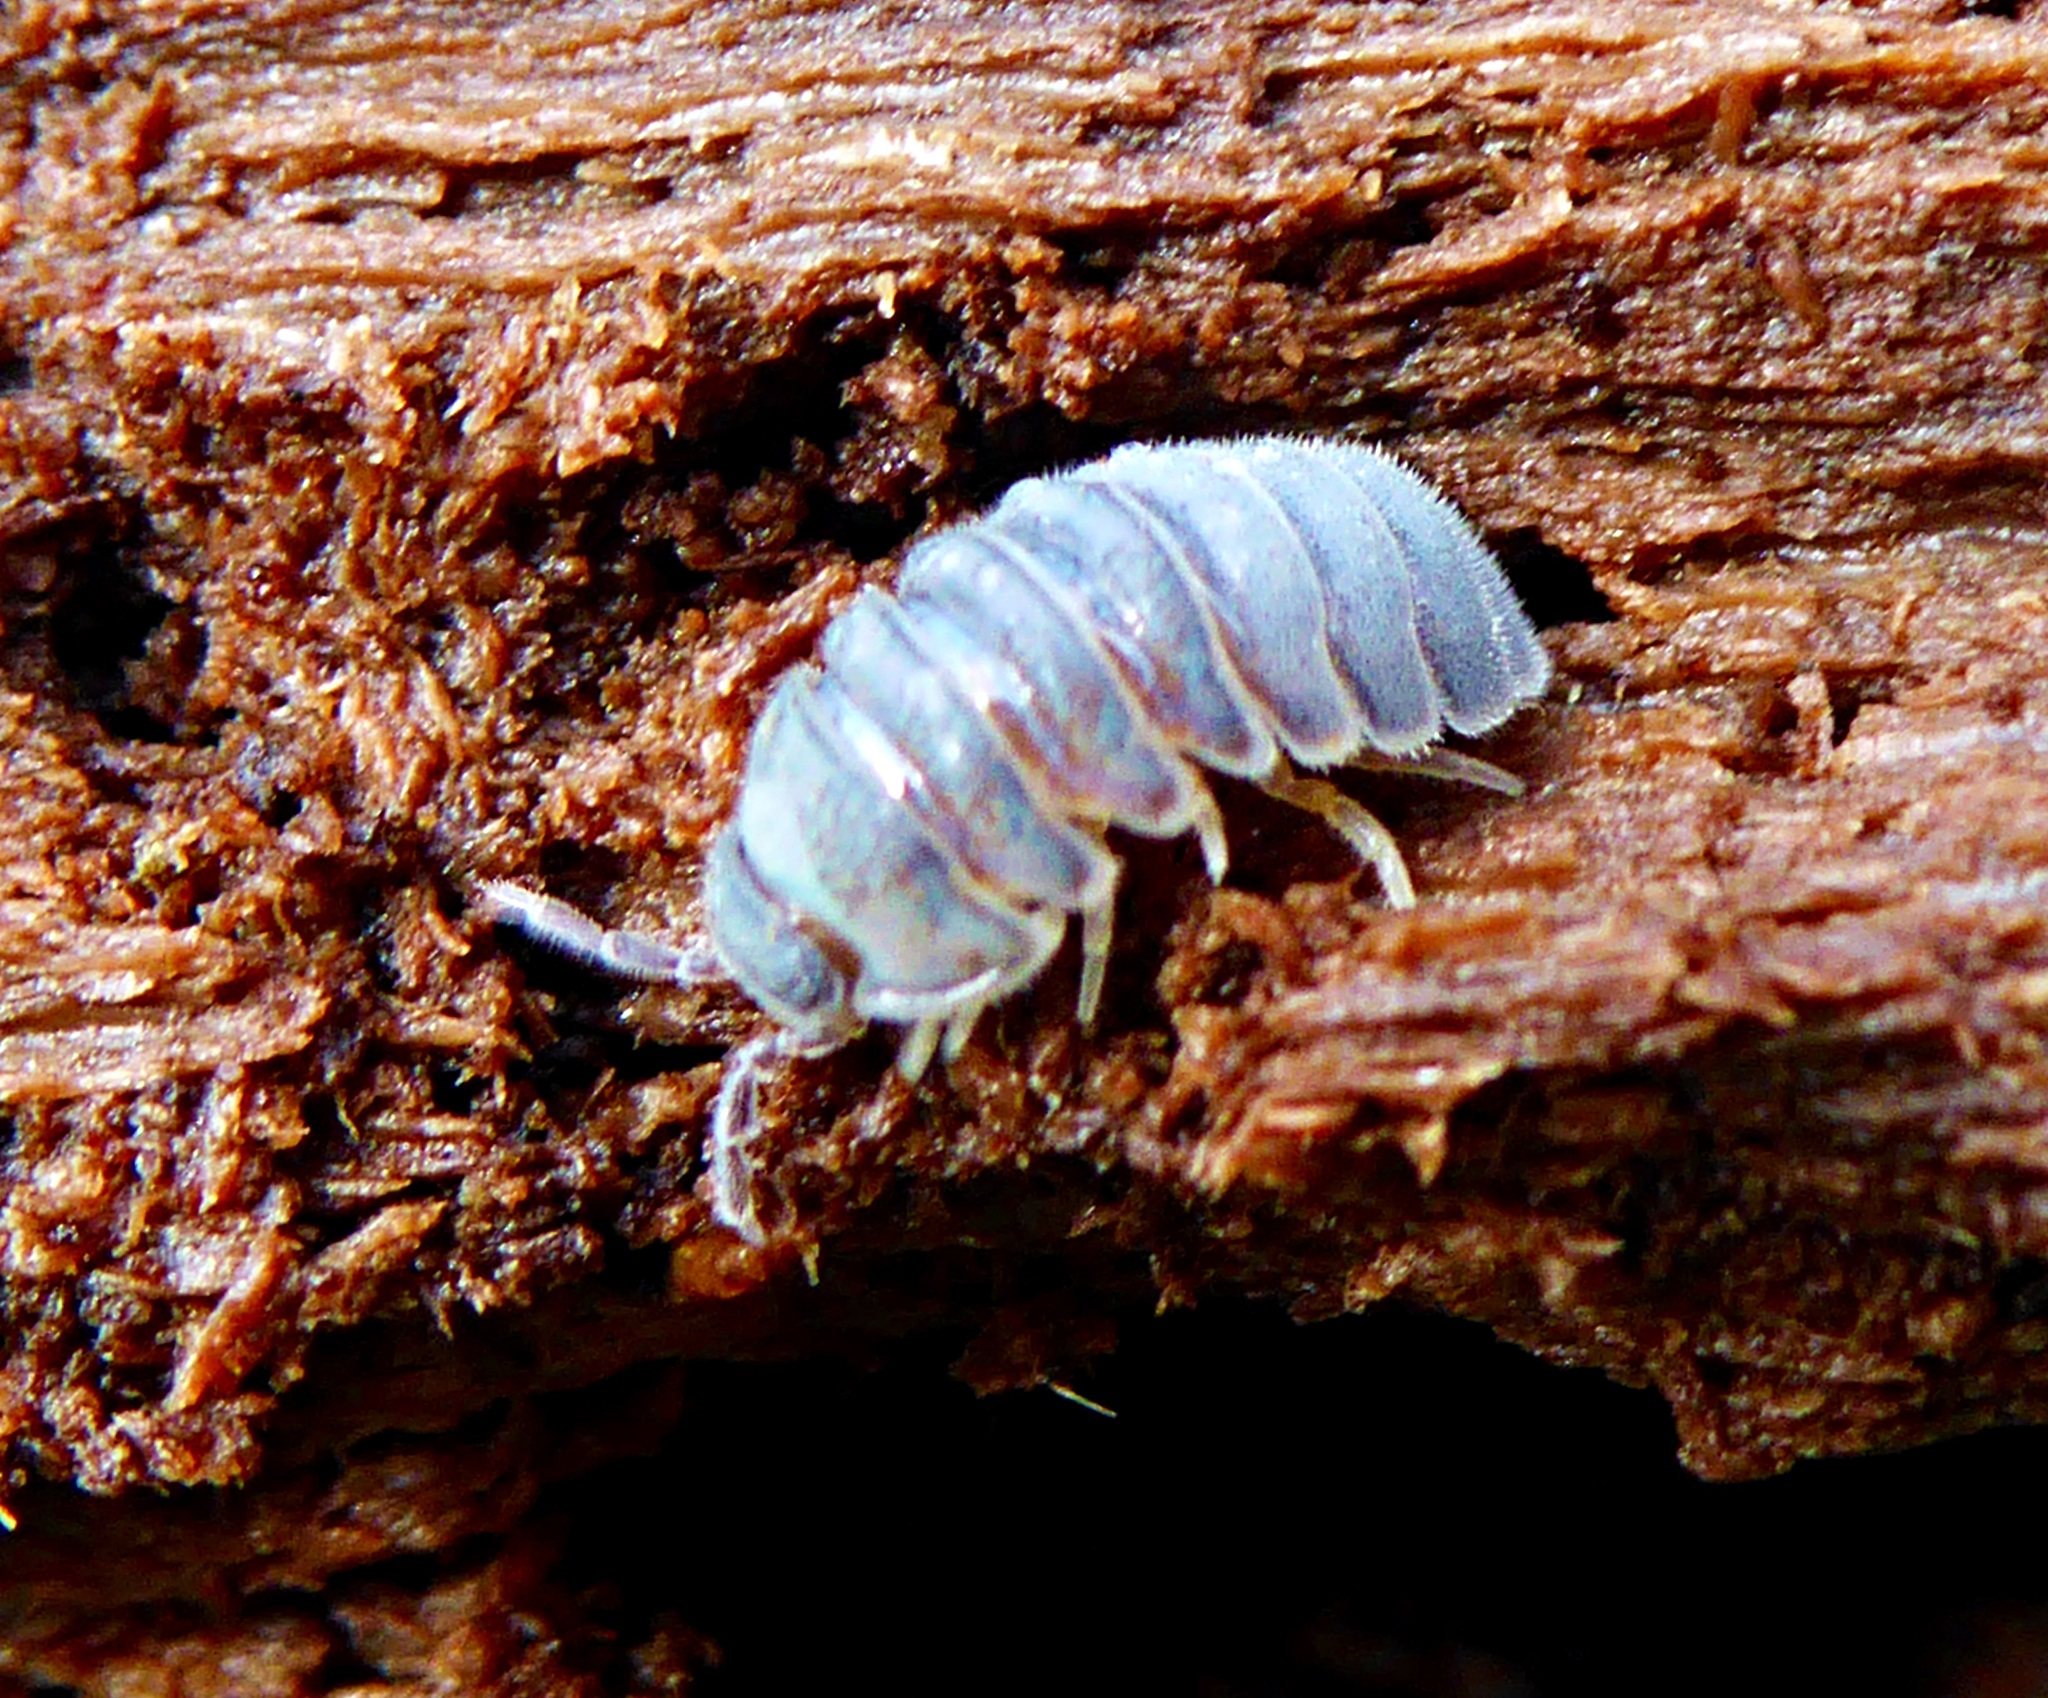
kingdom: Animalia
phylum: Arthropoda
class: Malacostraca
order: Isopoda
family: Eubelidae
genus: Eubelum
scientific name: Eubelum asperius
